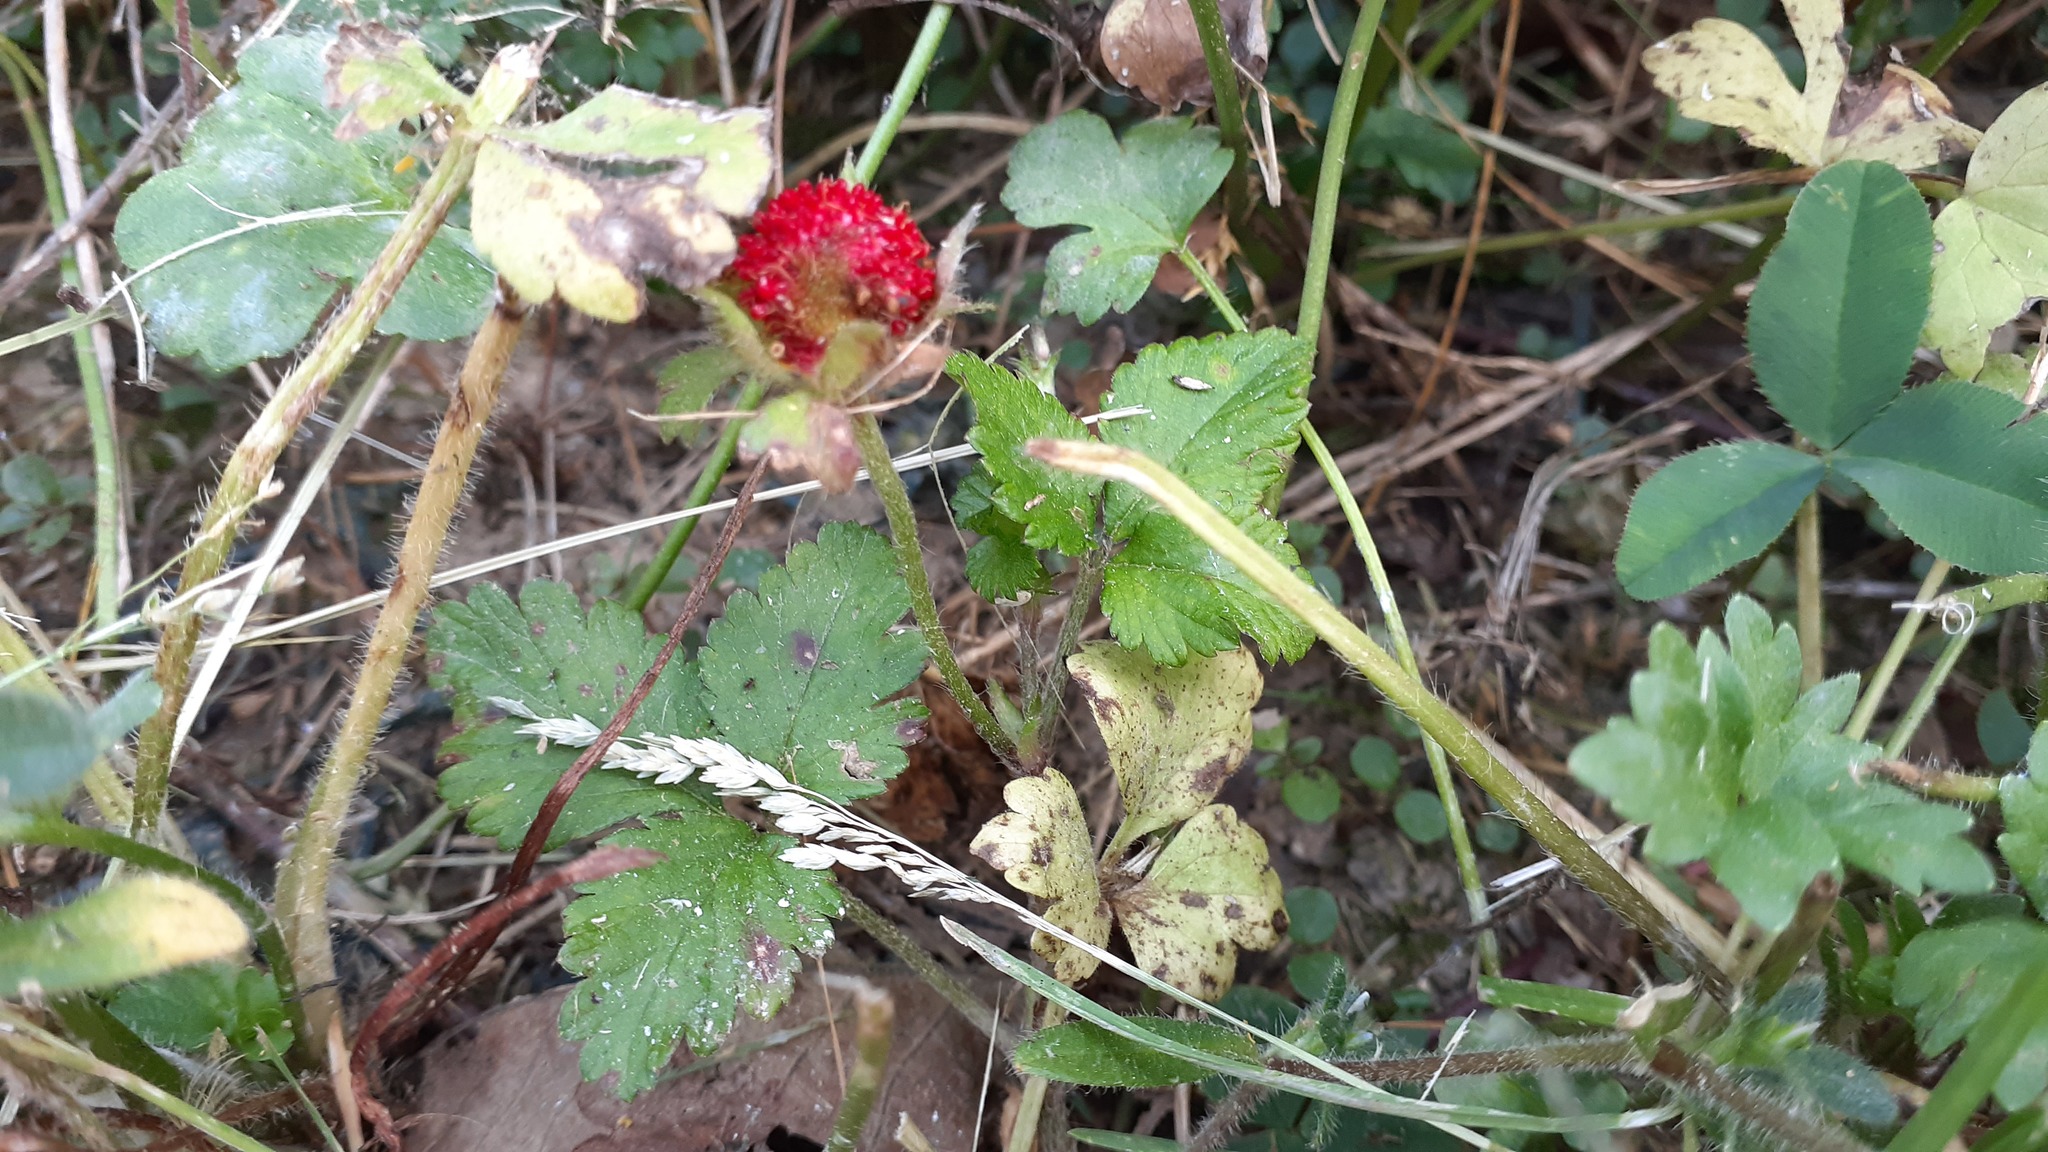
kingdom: Plantae
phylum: Tracheophyta
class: Magnoliopsida
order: Rosales
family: Rosaceae
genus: Potentilla
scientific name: Potentilla indica
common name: Yellow-flowered strawberry
